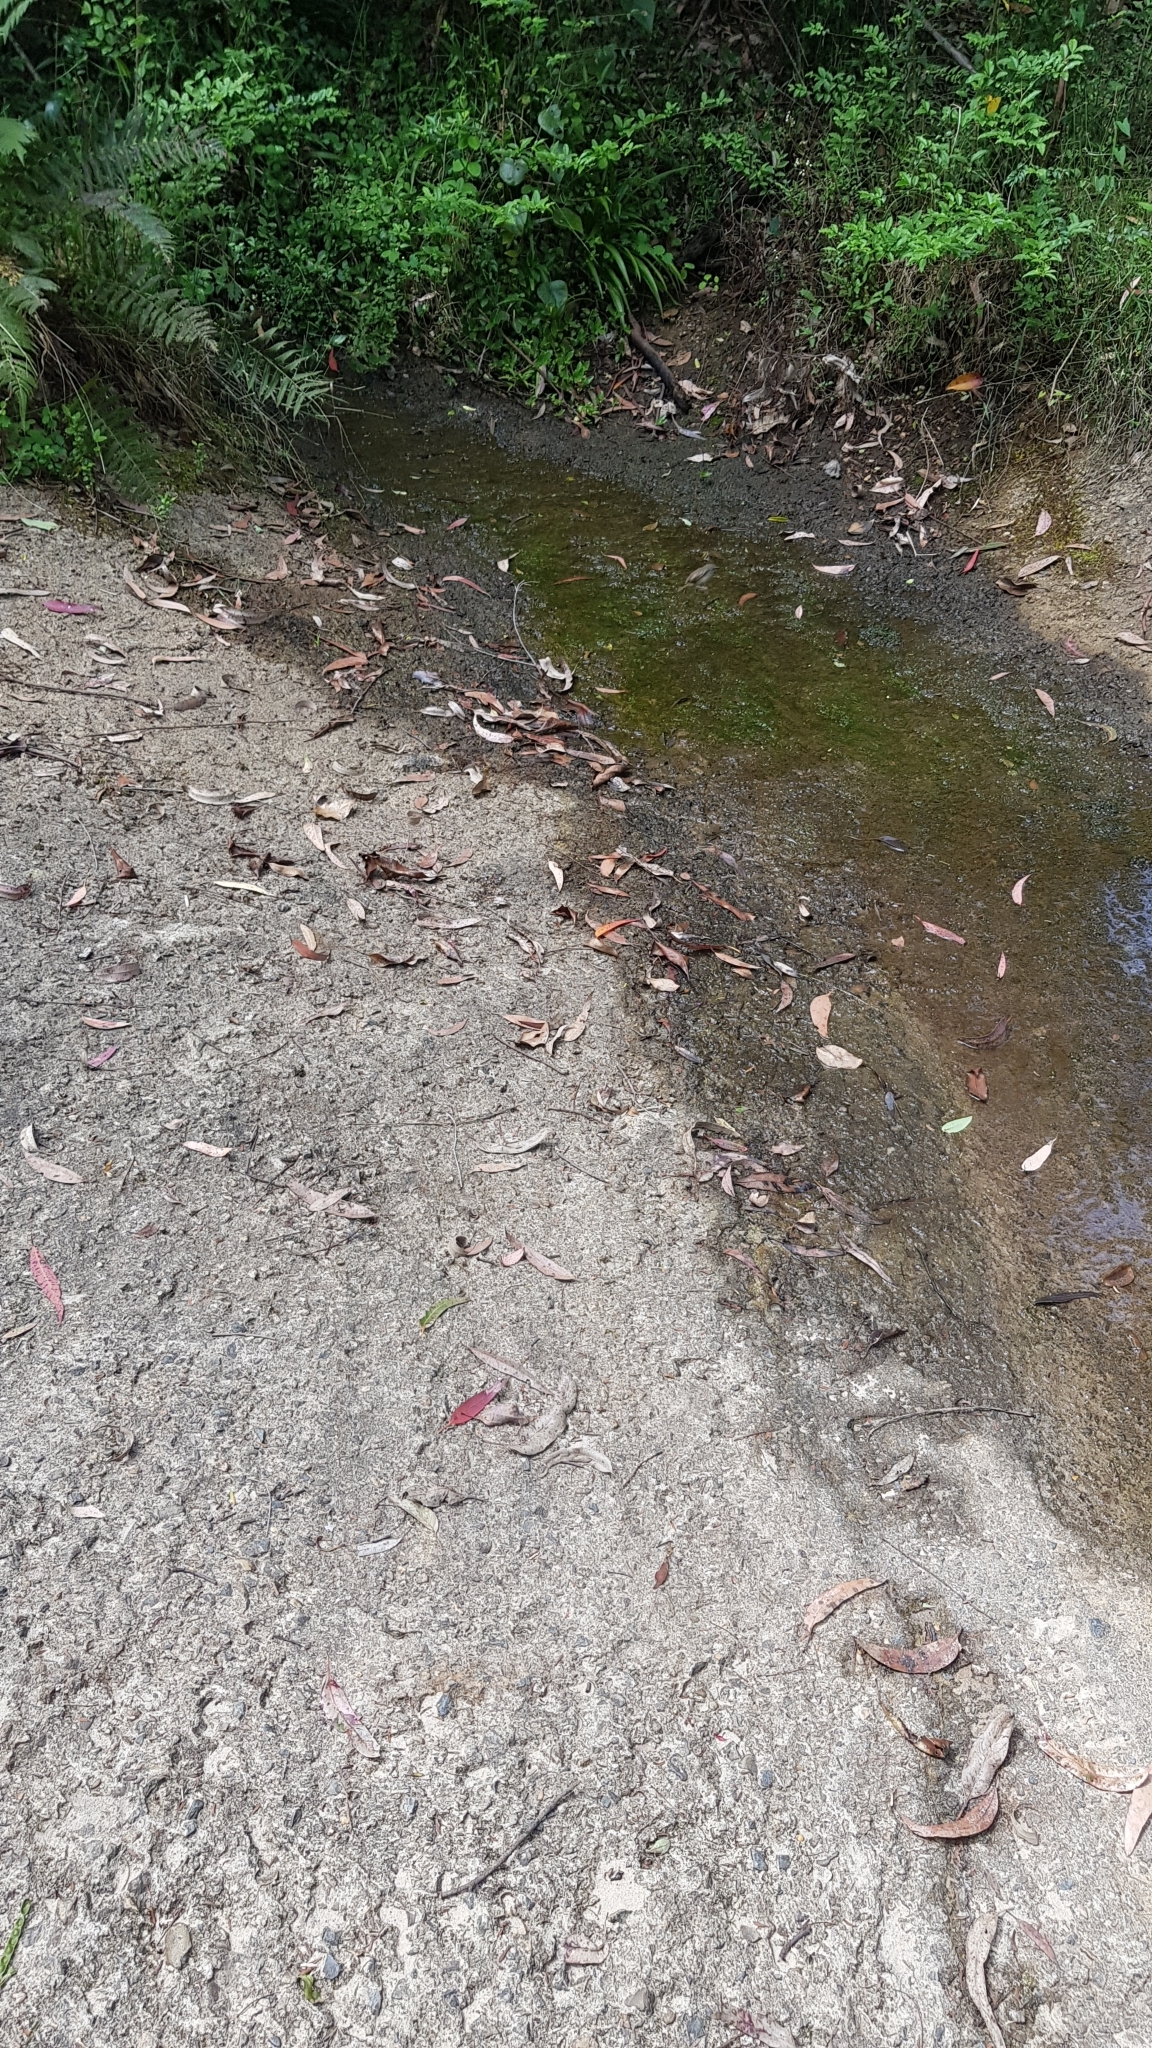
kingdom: Animalia
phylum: Chordata
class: Aves
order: Passeriformes
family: Acanthizidae
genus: Sericornis
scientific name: Sericornis frontalis
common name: White-browed scrubwren
